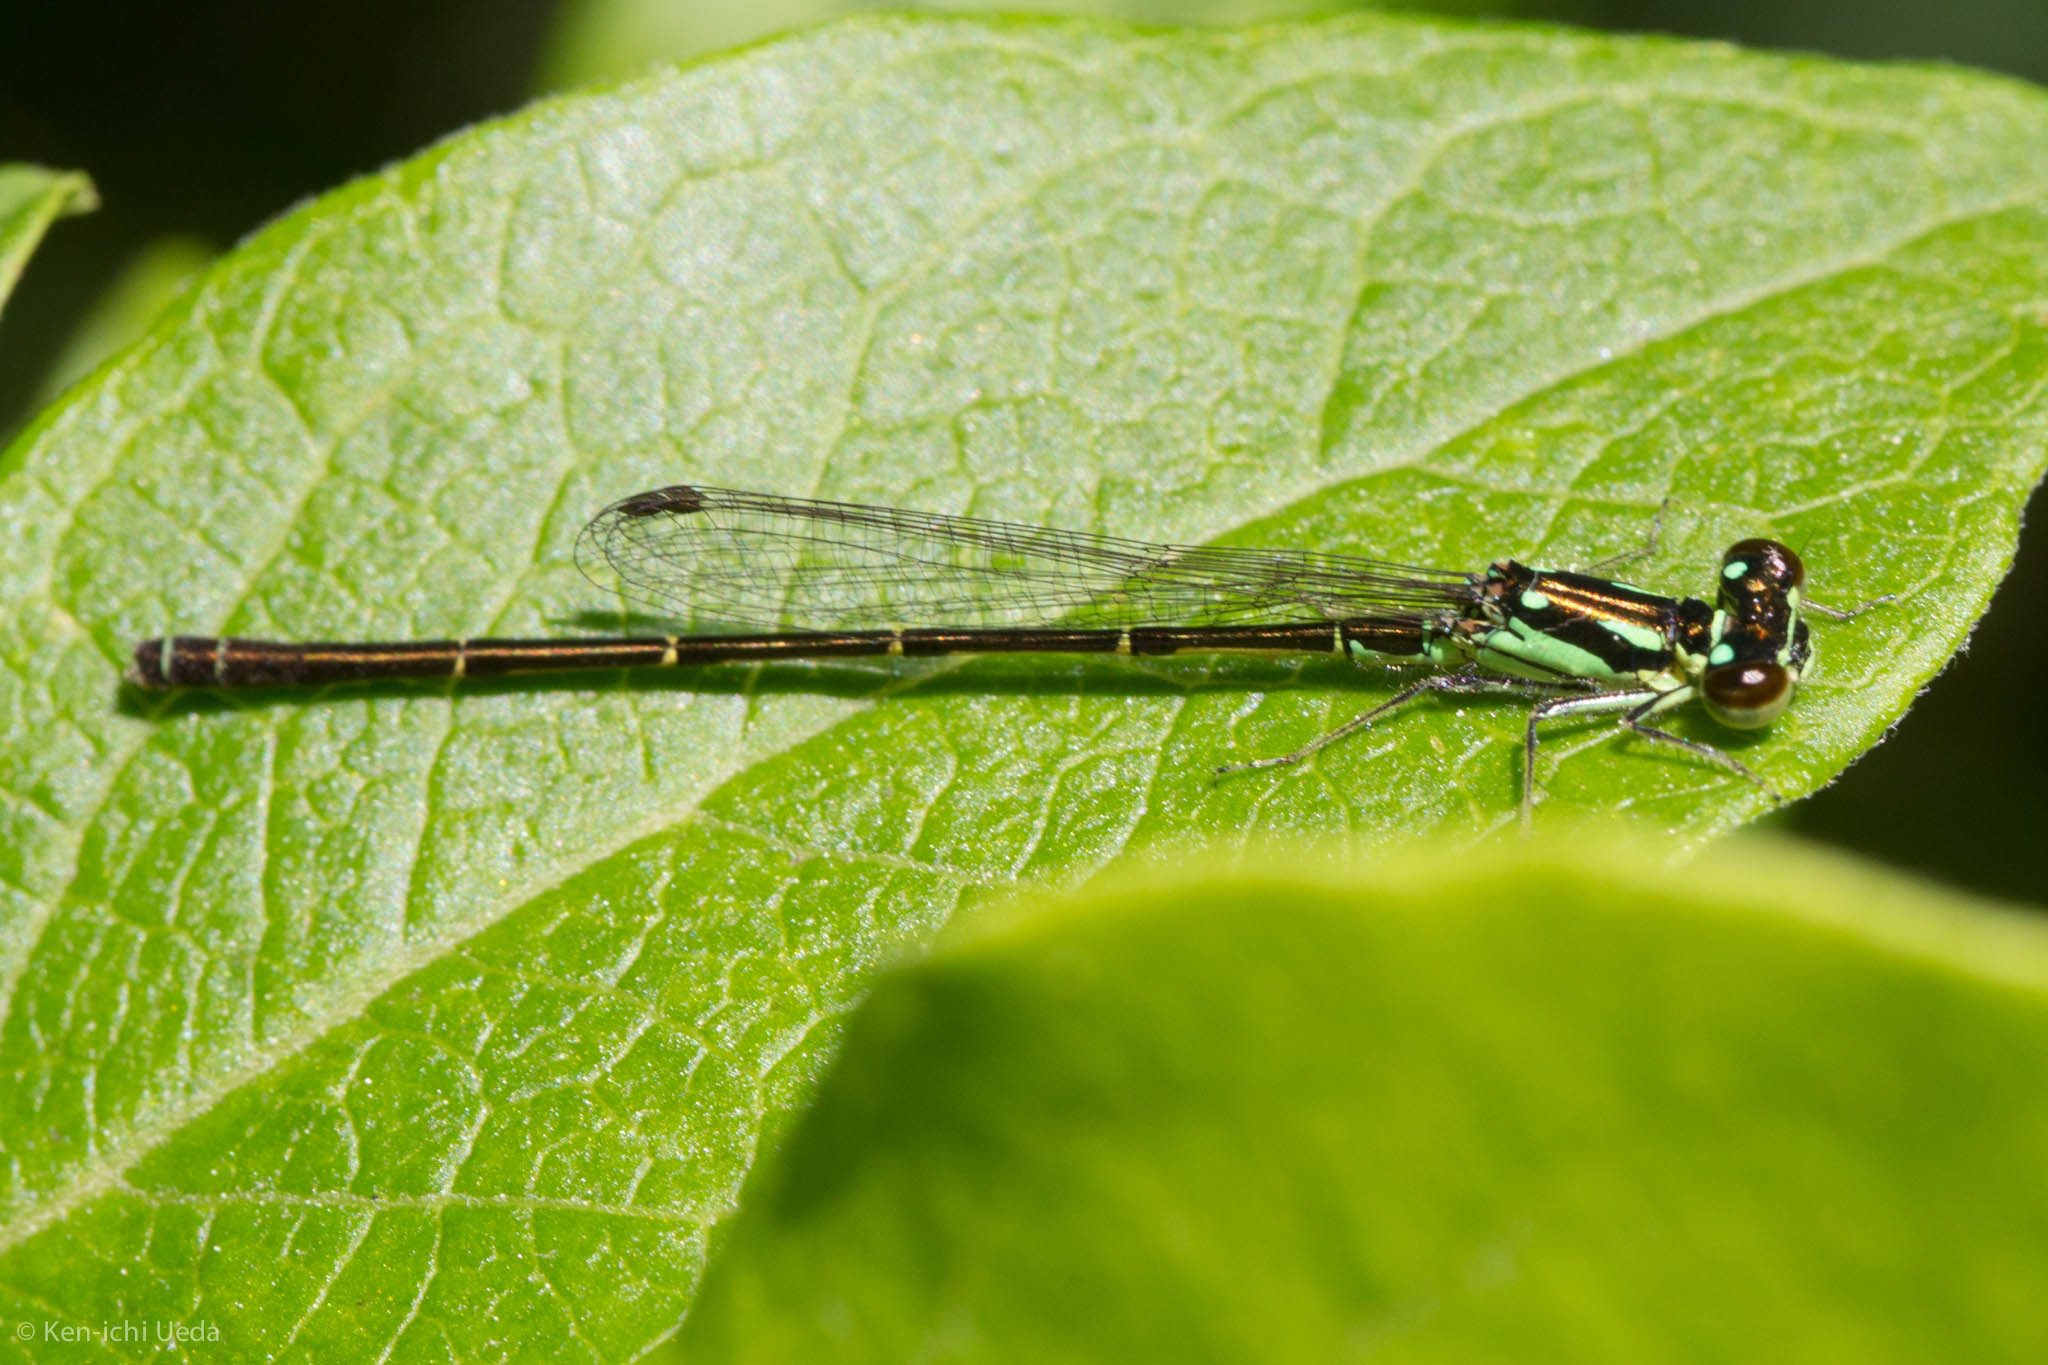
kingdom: Animalia
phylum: Arthropoda
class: Insecta
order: Odonata
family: Coenagrionidae
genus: Ischnura
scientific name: Ischnura posita
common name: Fragile forktail
